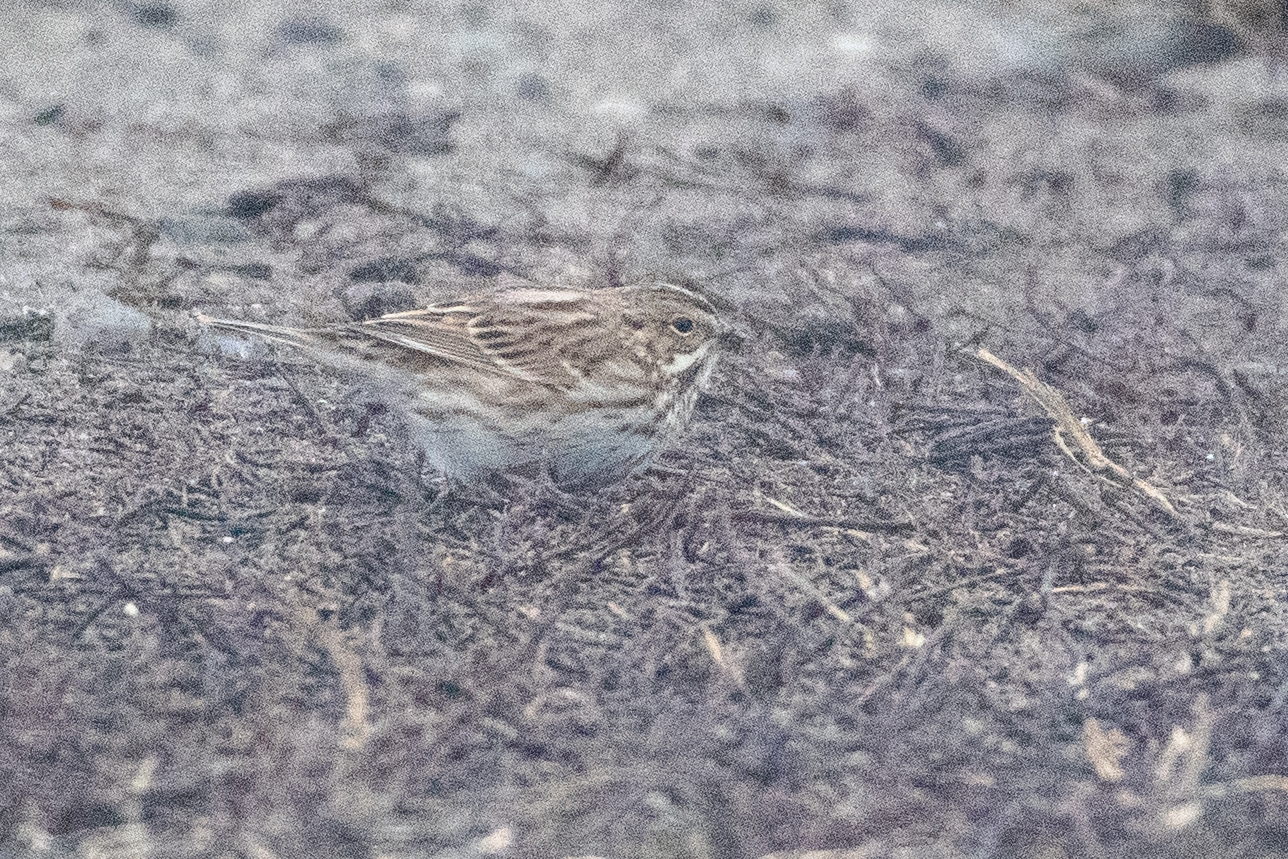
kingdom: Animalia
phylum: Chordata
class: Aves
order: Passeriformes
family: Passerellidae
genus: Passerculus
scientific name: Passerculus sandwichensis
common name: Savannah sparrow
